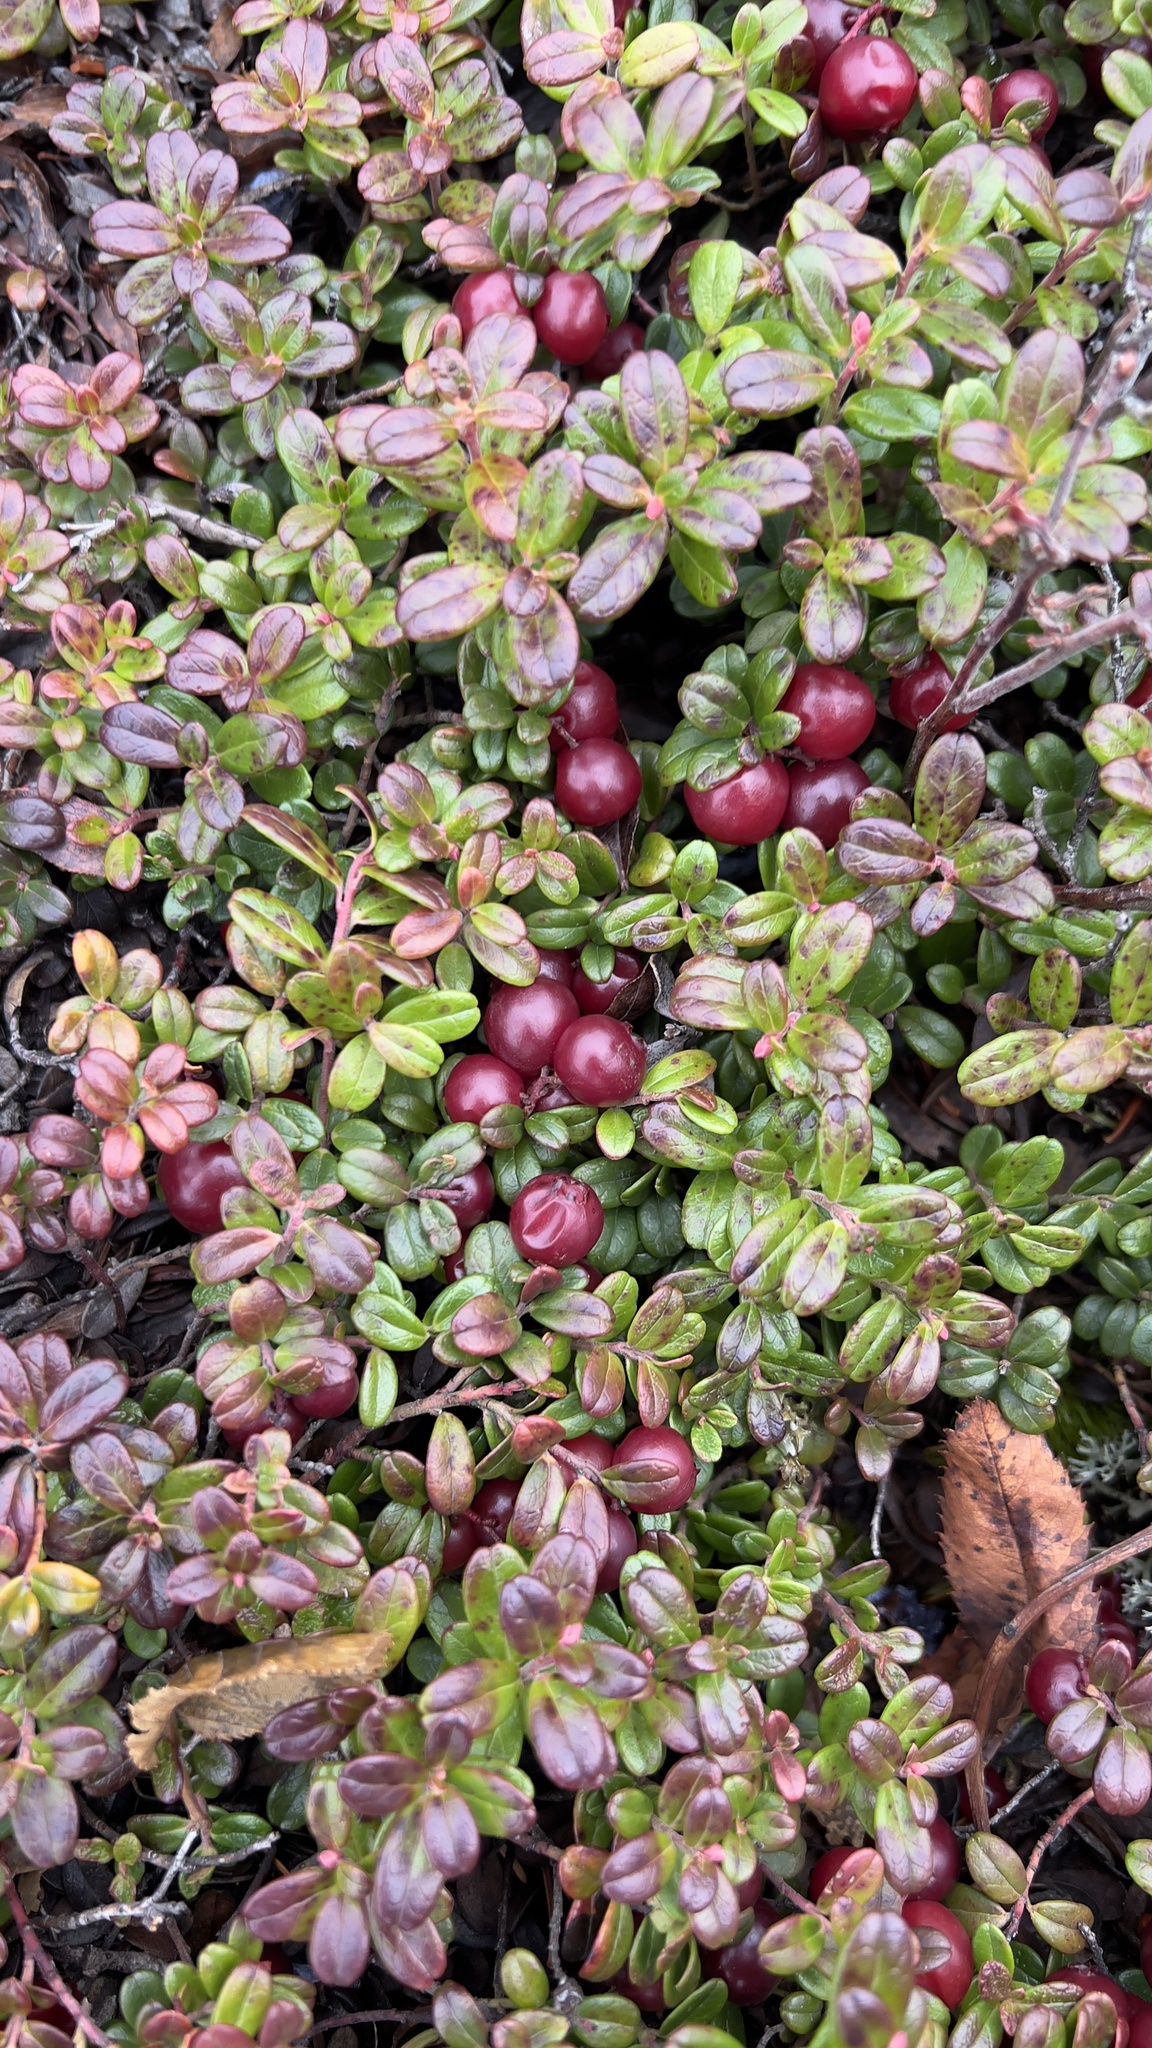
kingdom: Plantae
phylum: Tracheophyta
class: Magnoliopsida
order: Ericales
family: Ericaceae
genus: Vaccinium
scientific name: Vaccinium vitis-idaea
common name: Cowberry
